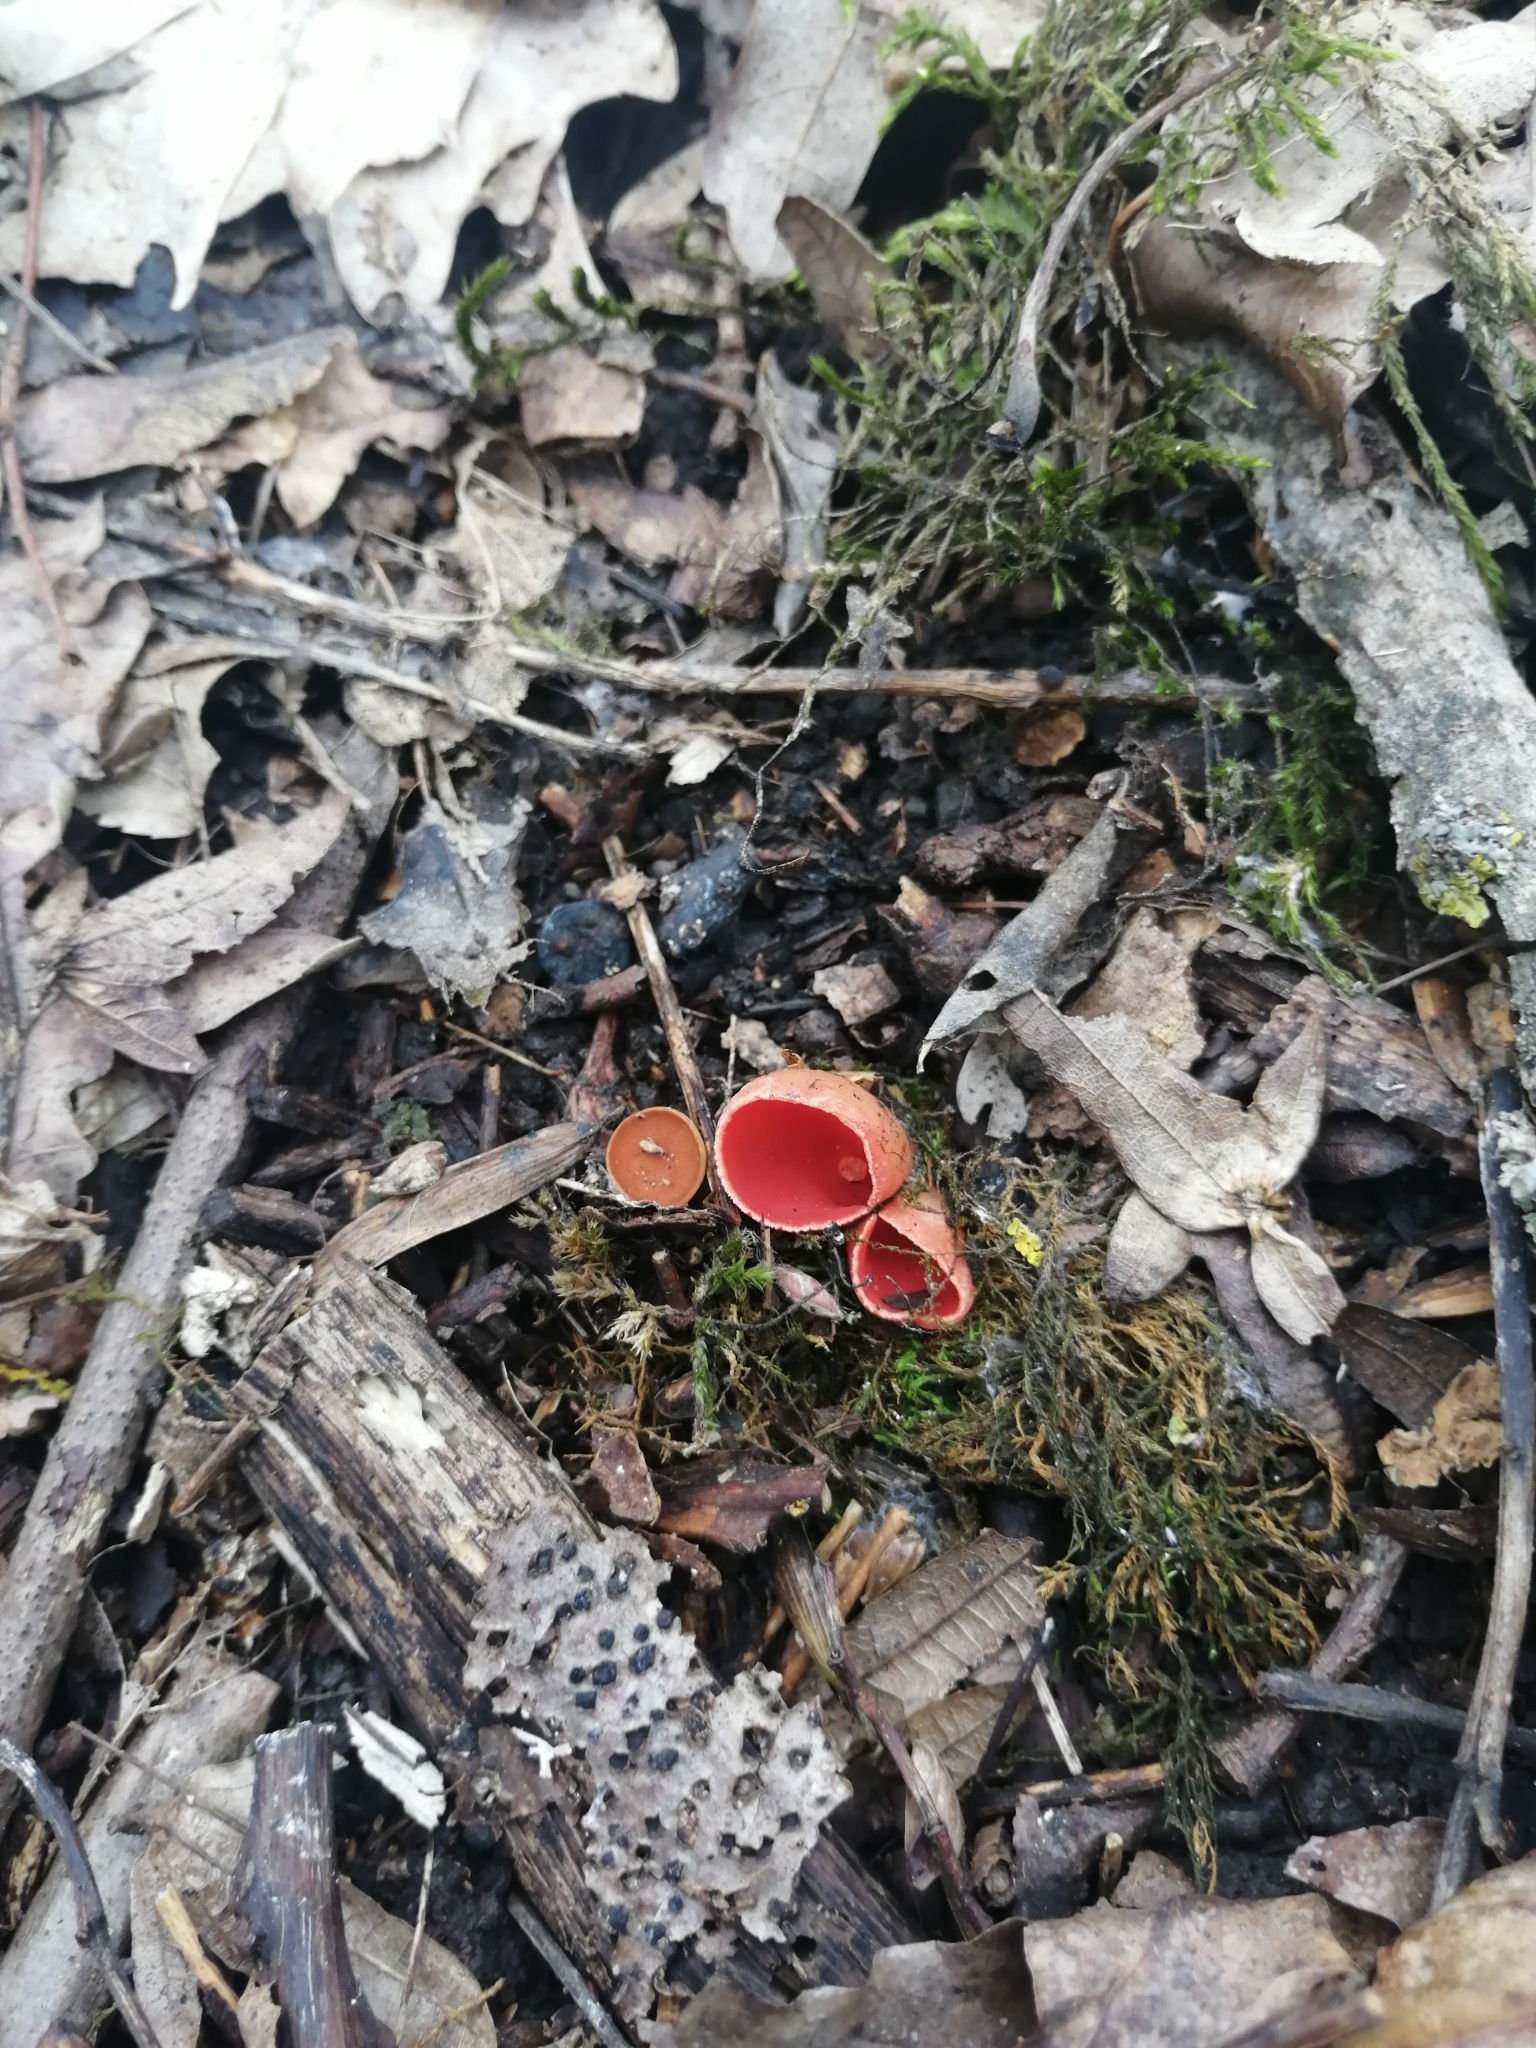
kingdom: Fungi
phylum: Ascomycota
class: Pezizomycetes
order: Pezizales
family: Sarcoscyphaceae
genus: Sarcoscypha
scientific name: Sarcoscypha
